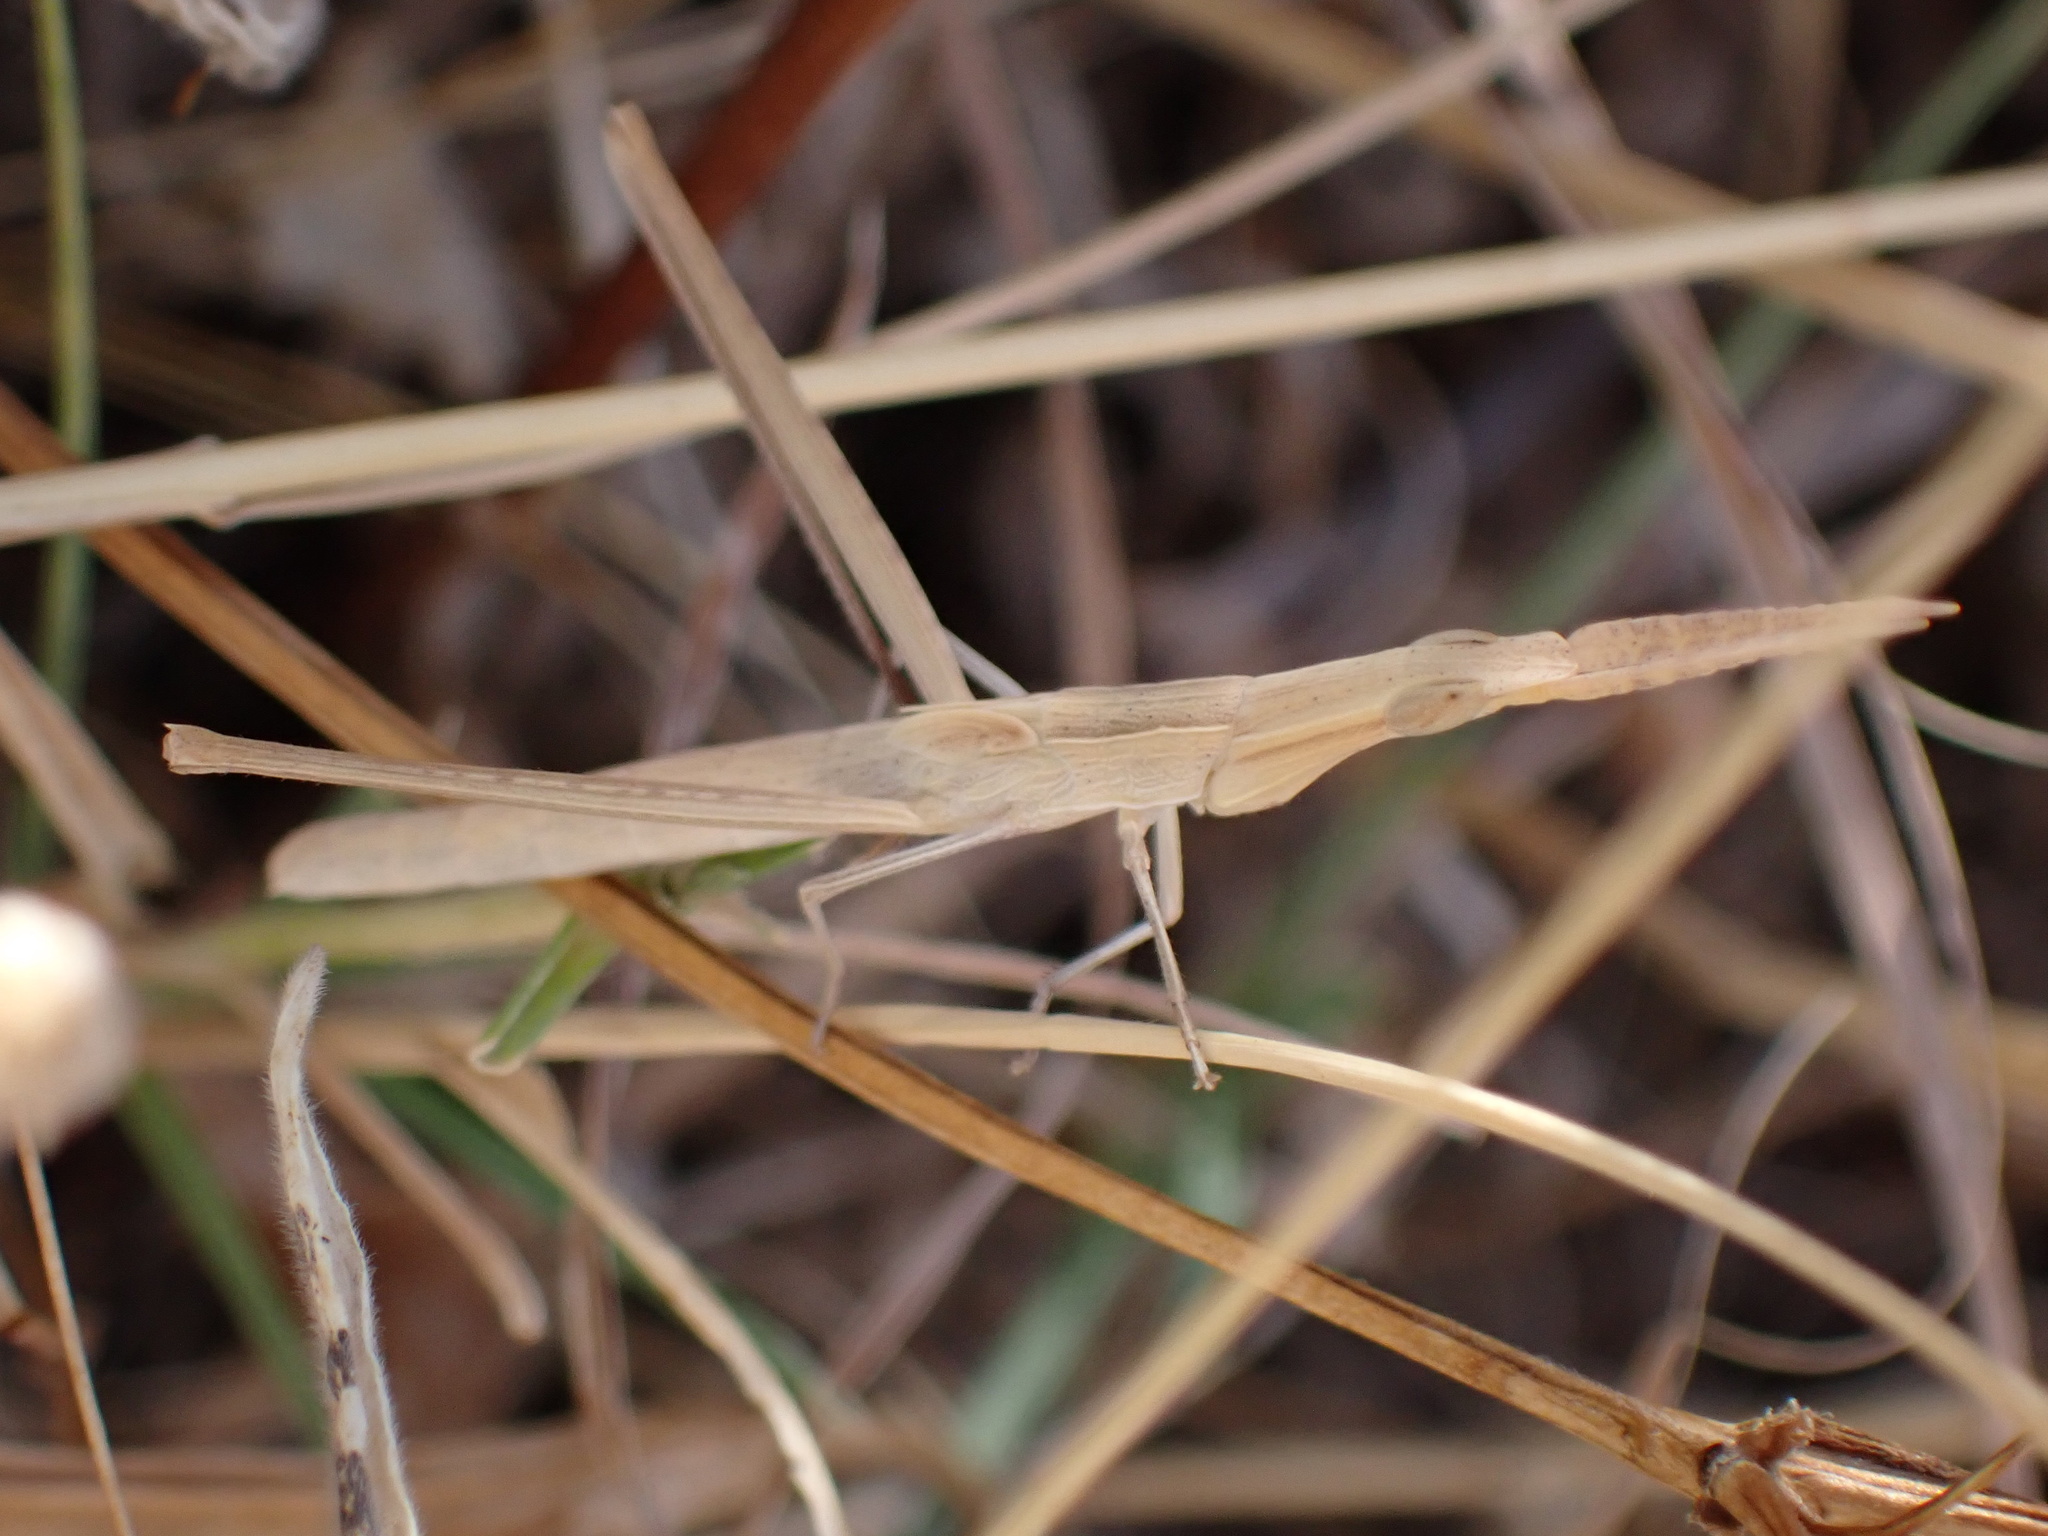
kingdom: Animalia
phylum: Arthropoda
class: Insecta
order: Orthoptera
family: Acrididae
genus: Acrida
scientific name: Acrida ungarica
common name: Common cone-headed grasshopper
